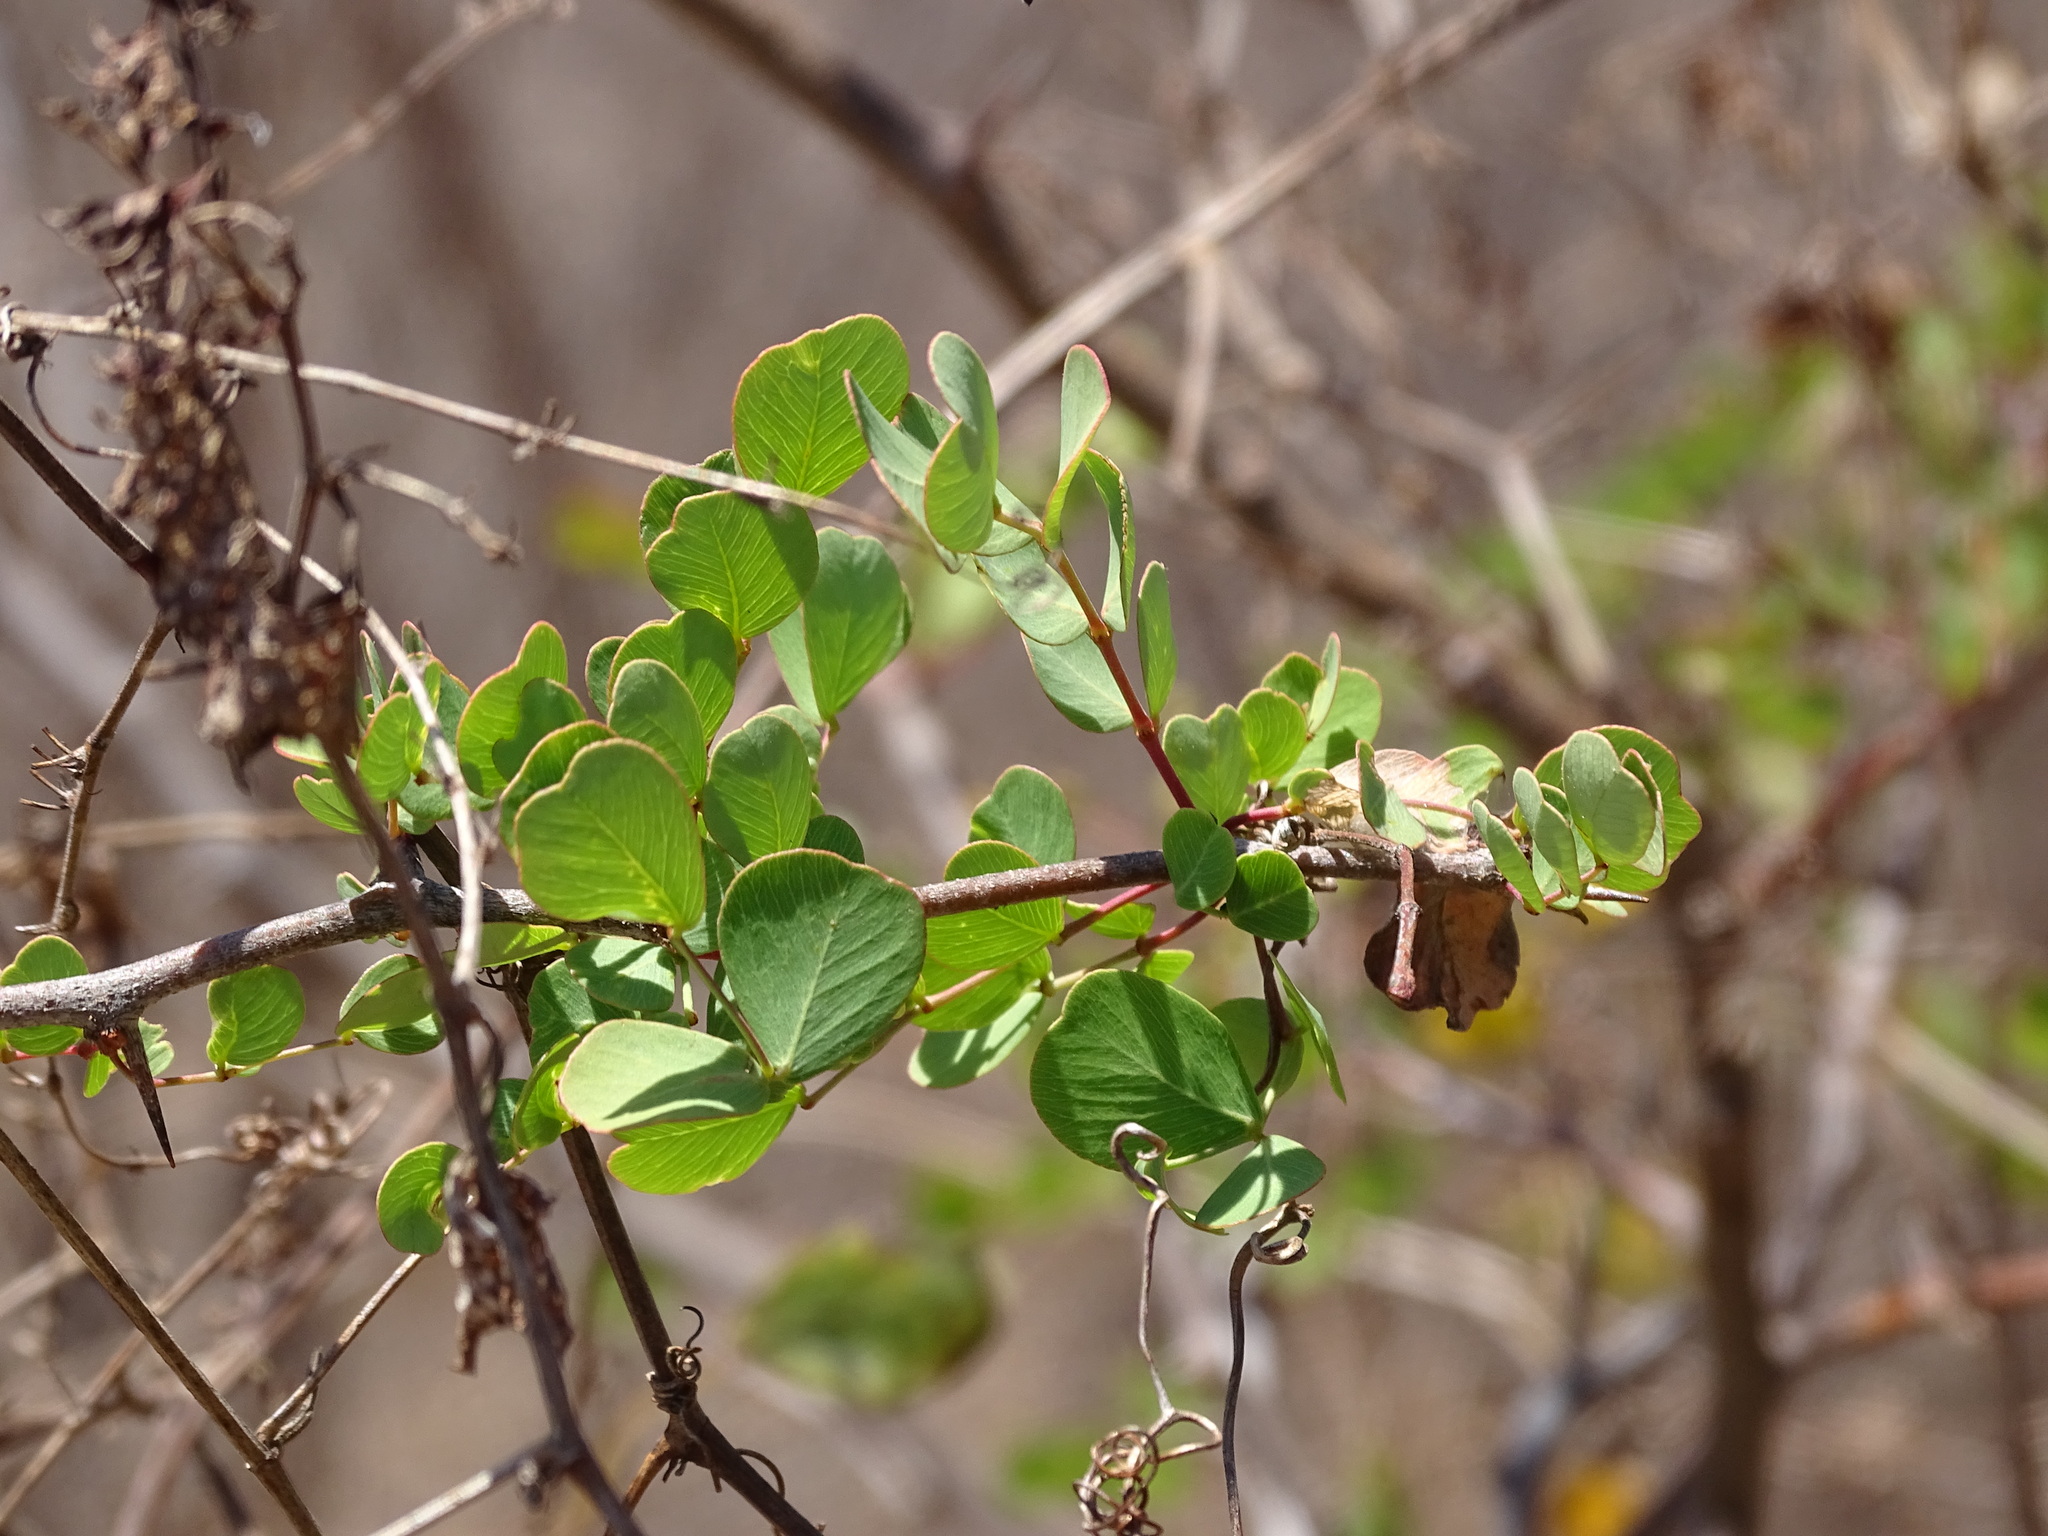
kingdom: Plantae
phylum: Tracheophyta
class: Magnoliopsida
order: Fabales
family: Fabaceae
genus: Haematoxylum
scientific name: Haematoxylum brasiletto
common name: Peachwood
